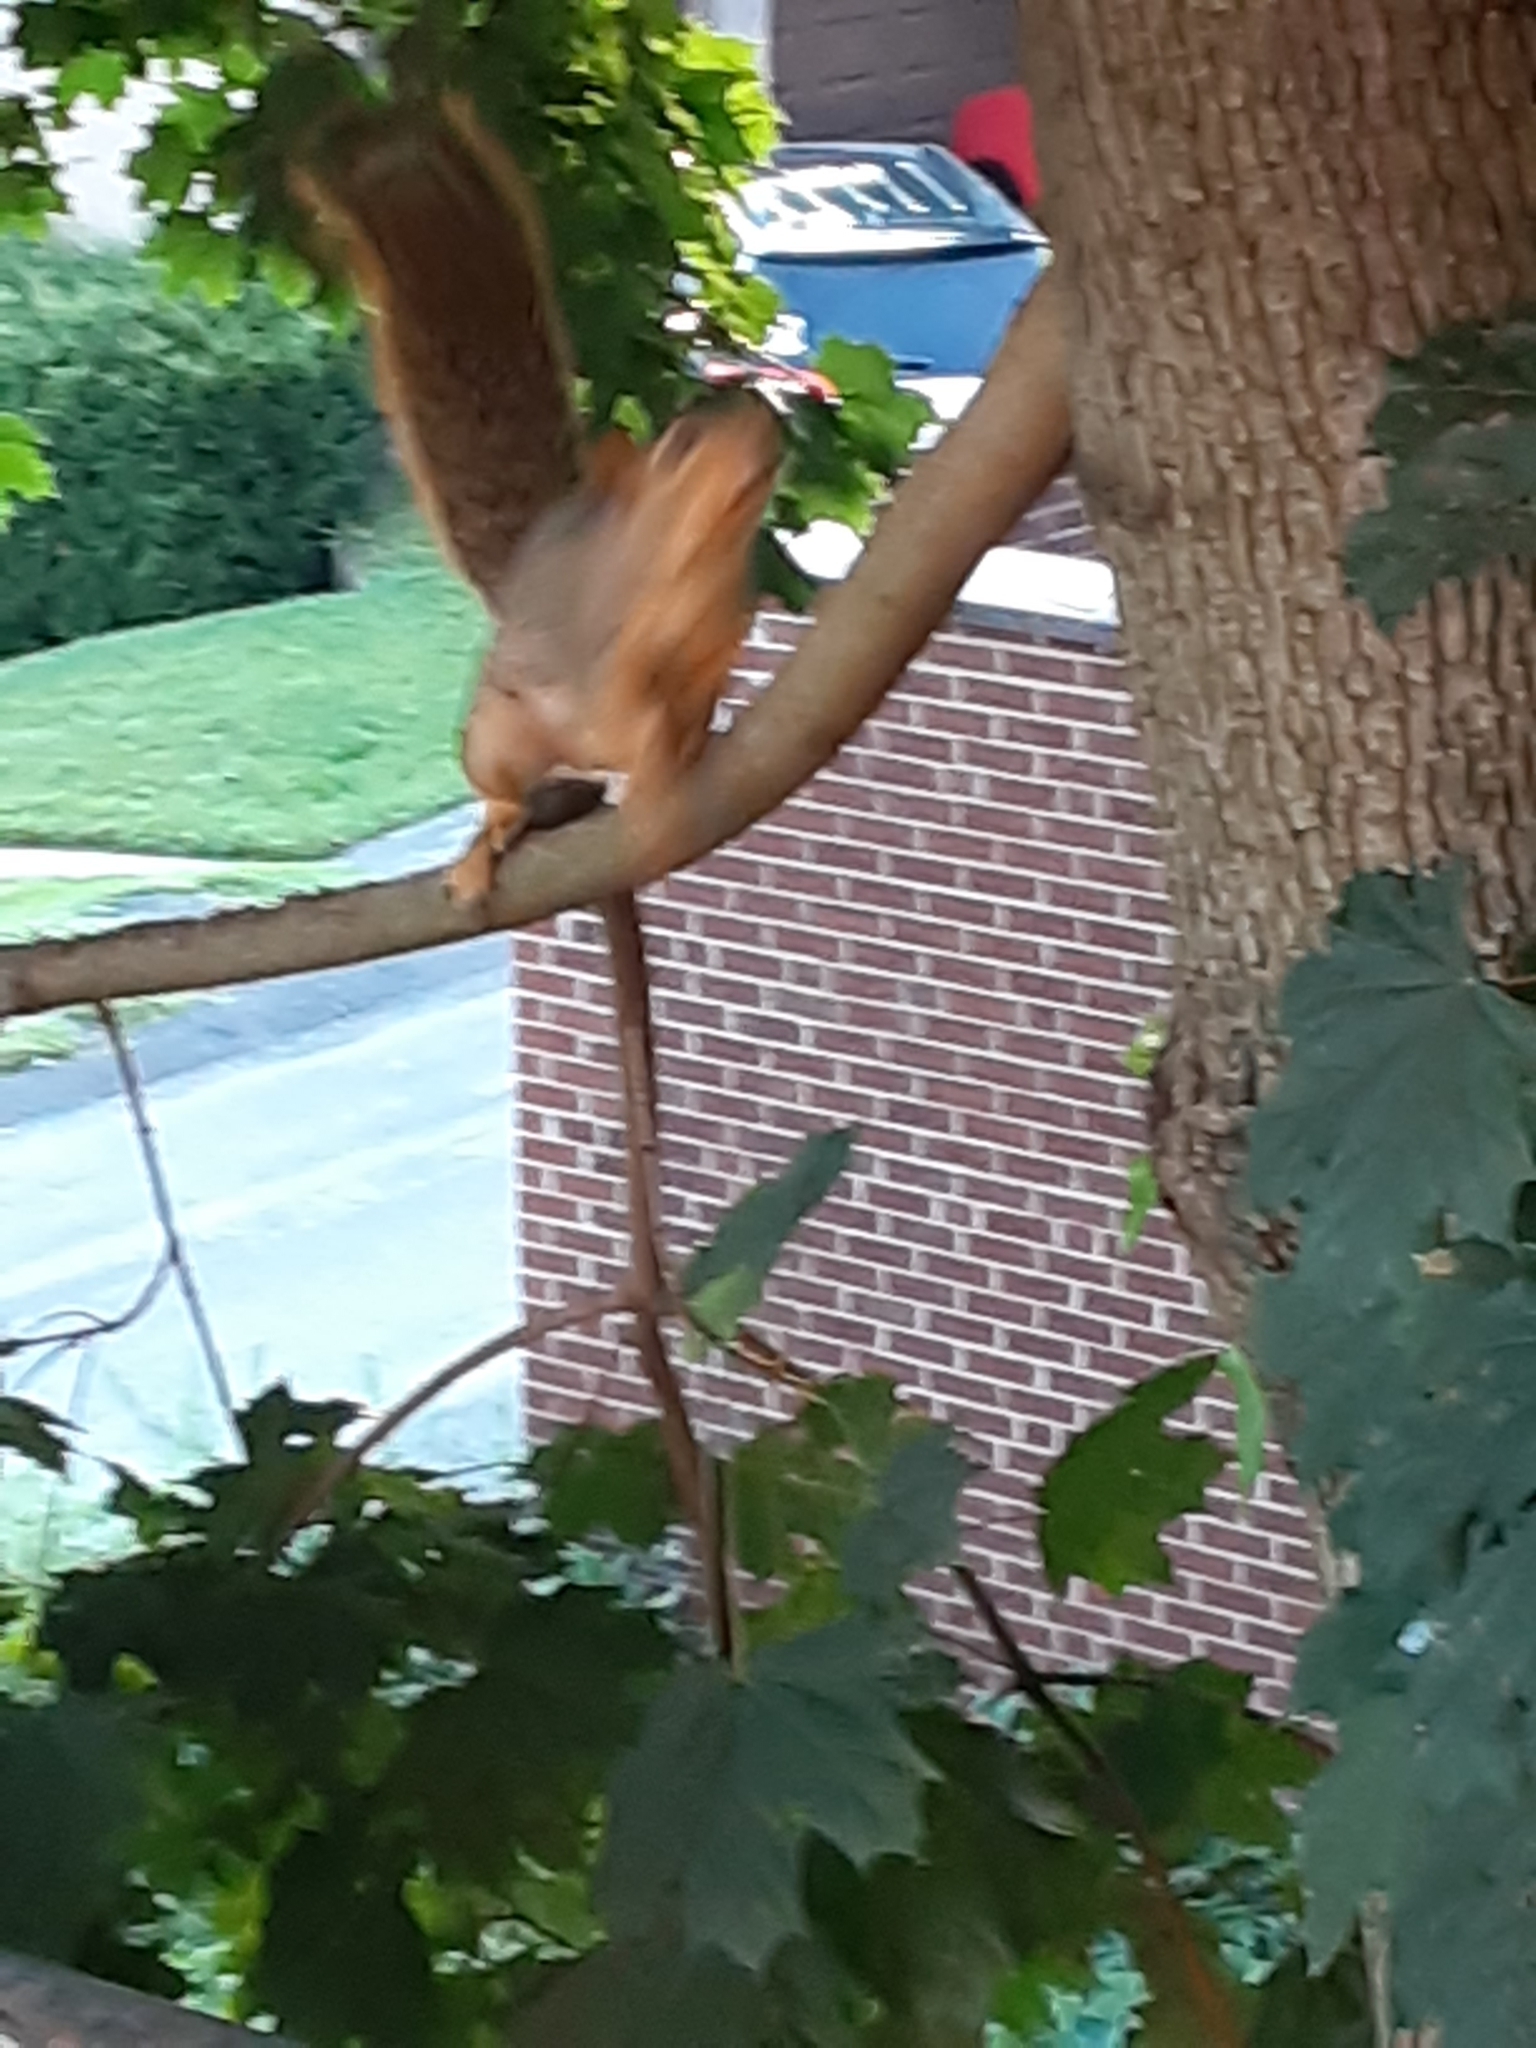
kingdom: Animalia
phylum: Chordata
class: Mammalia
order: Rodentia
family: Sciuridae
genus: Sciurus
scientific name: Sciurus niger
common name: Fox squirrel
